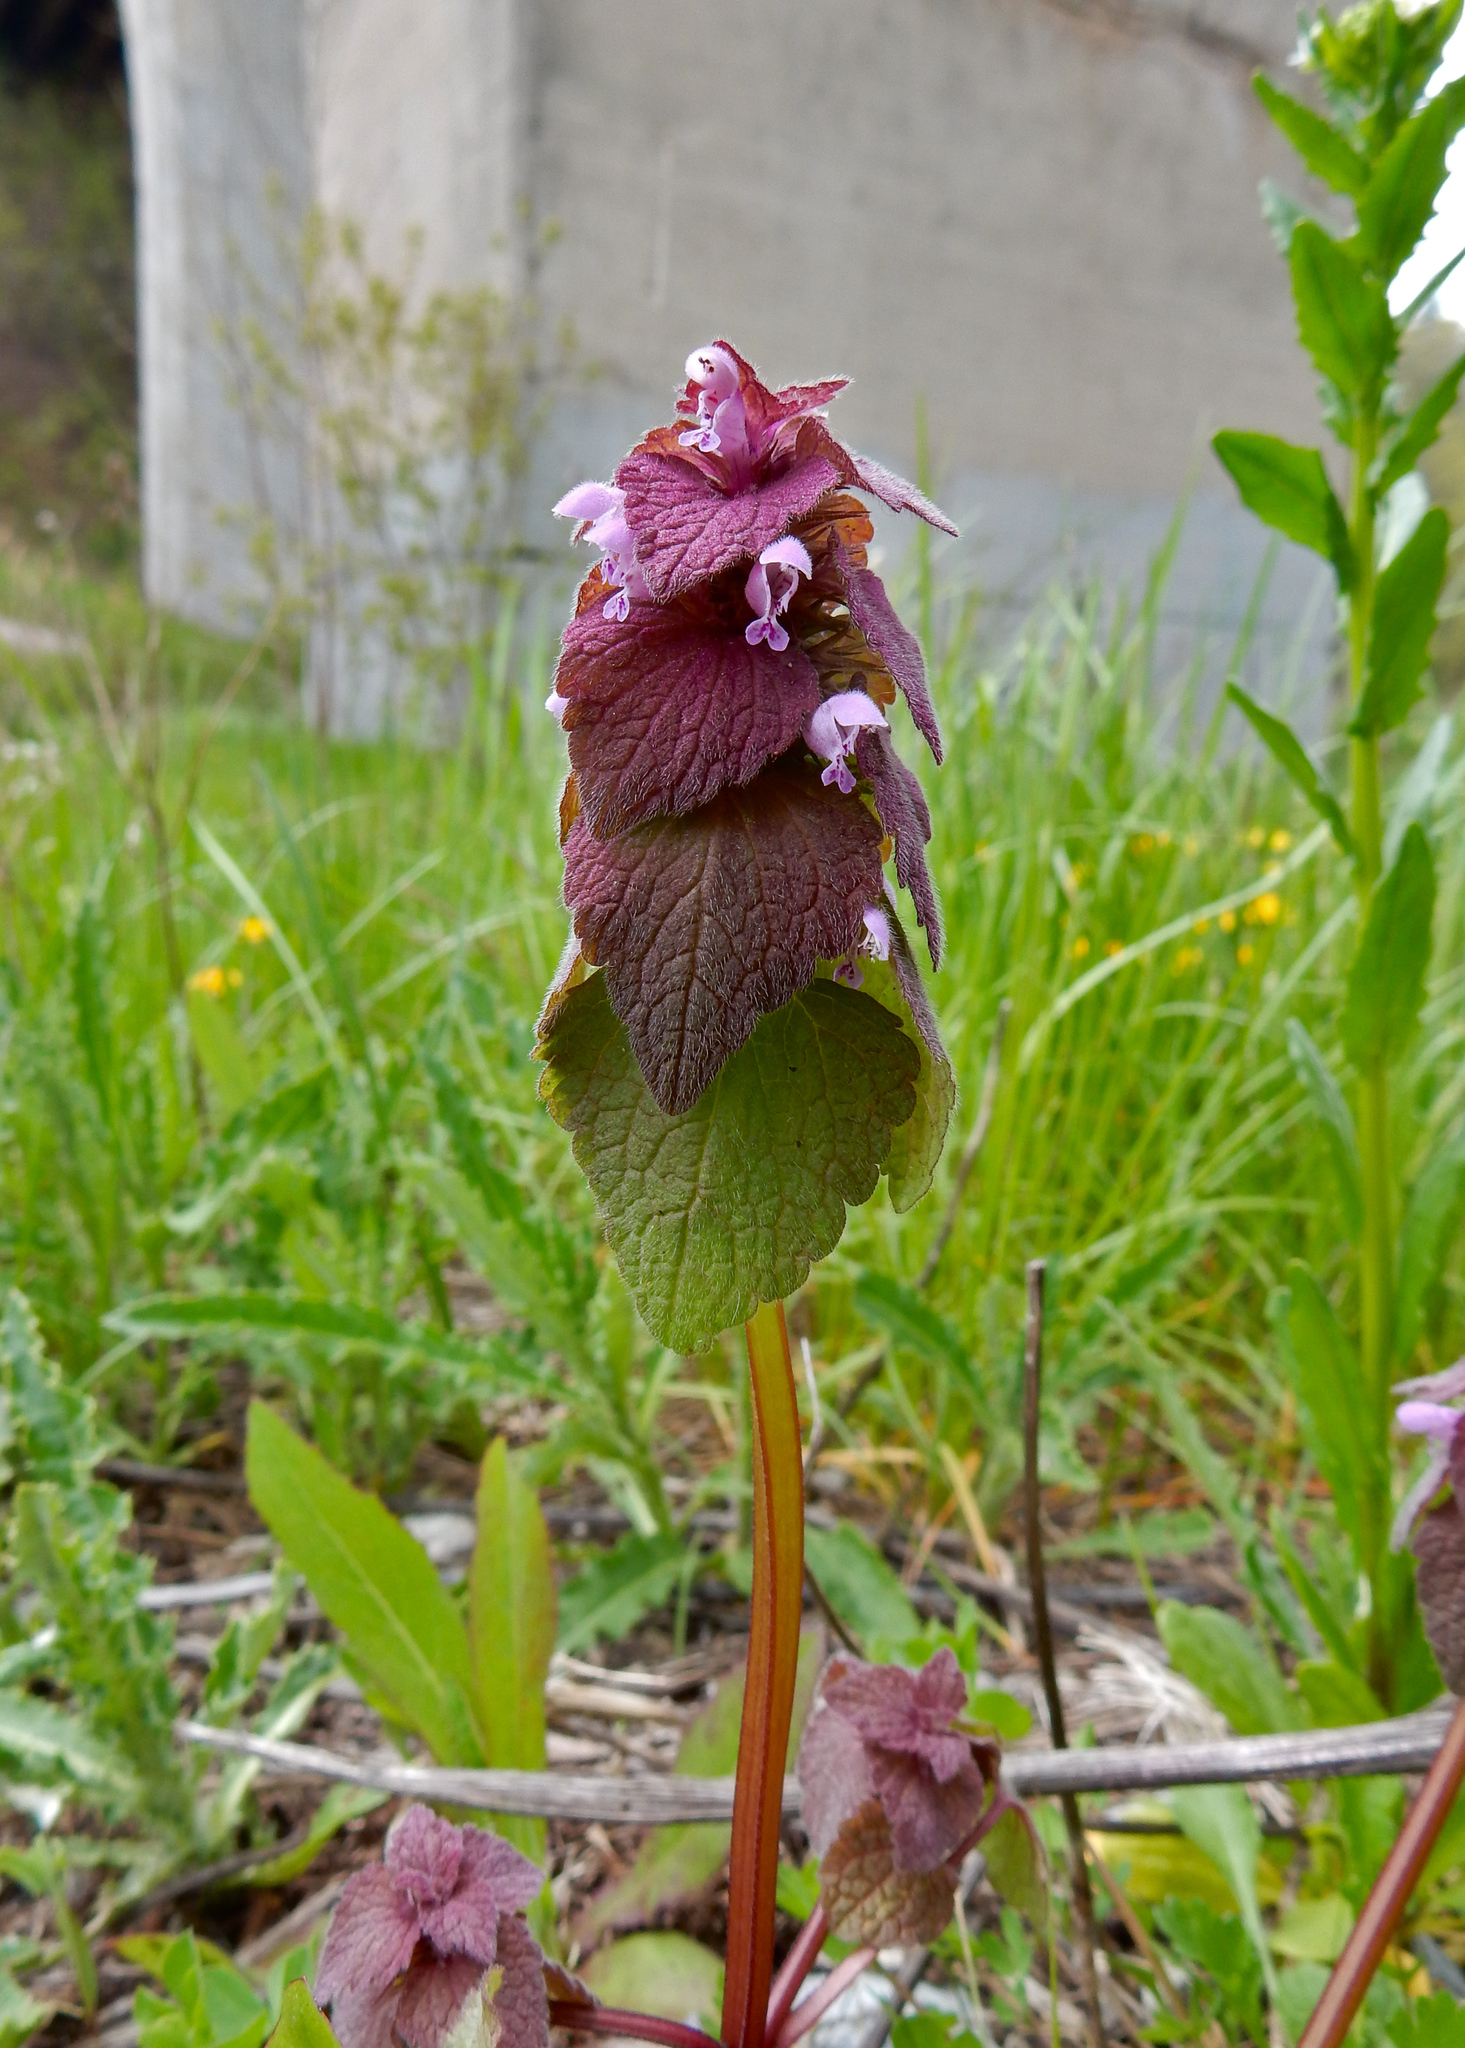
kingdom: Plantae
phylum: Tracheophyta
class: Magnoliopsida
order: Lamiales
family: Lamiaceae
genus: Lamium
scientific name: Lamium purpureum
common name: Red dead-nettle
